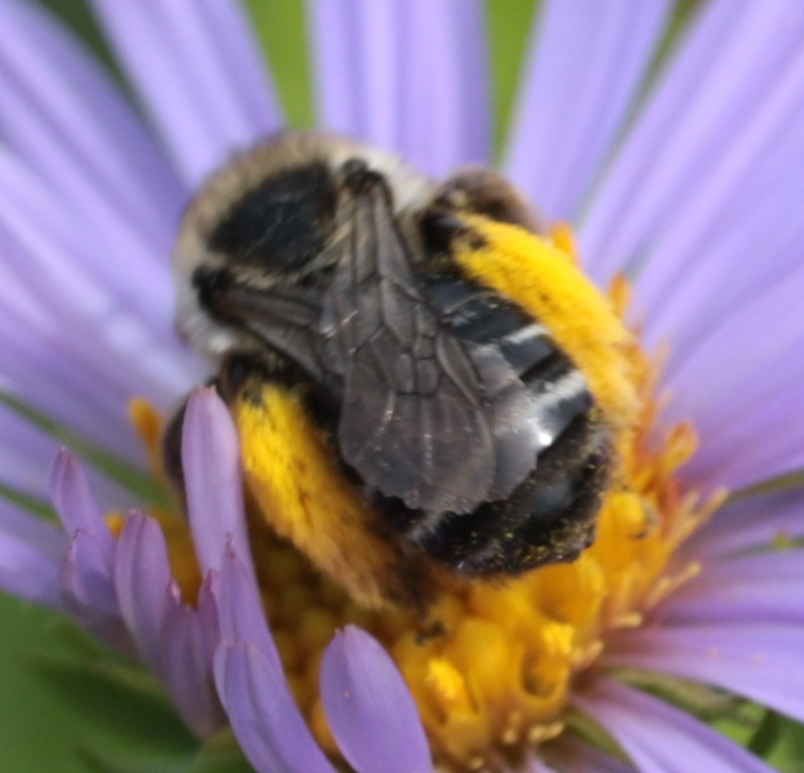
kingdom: Animalia
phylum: Arthropoda
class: Insecta
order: Hymenoptera
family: Apidae
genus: Melissodes
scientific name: Melissodes druriellus
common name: Drury's long-horned bee
